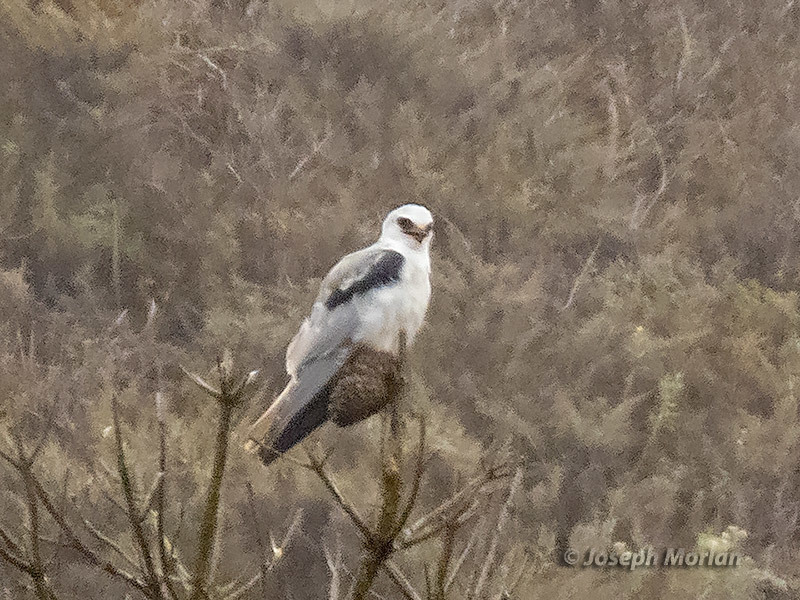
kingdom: Animalia
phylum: Chordata
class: Aves
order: Accipitriformes
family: Accipitridae
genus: Elanus
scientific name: Elanus leucurus
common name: White-tailed kite
